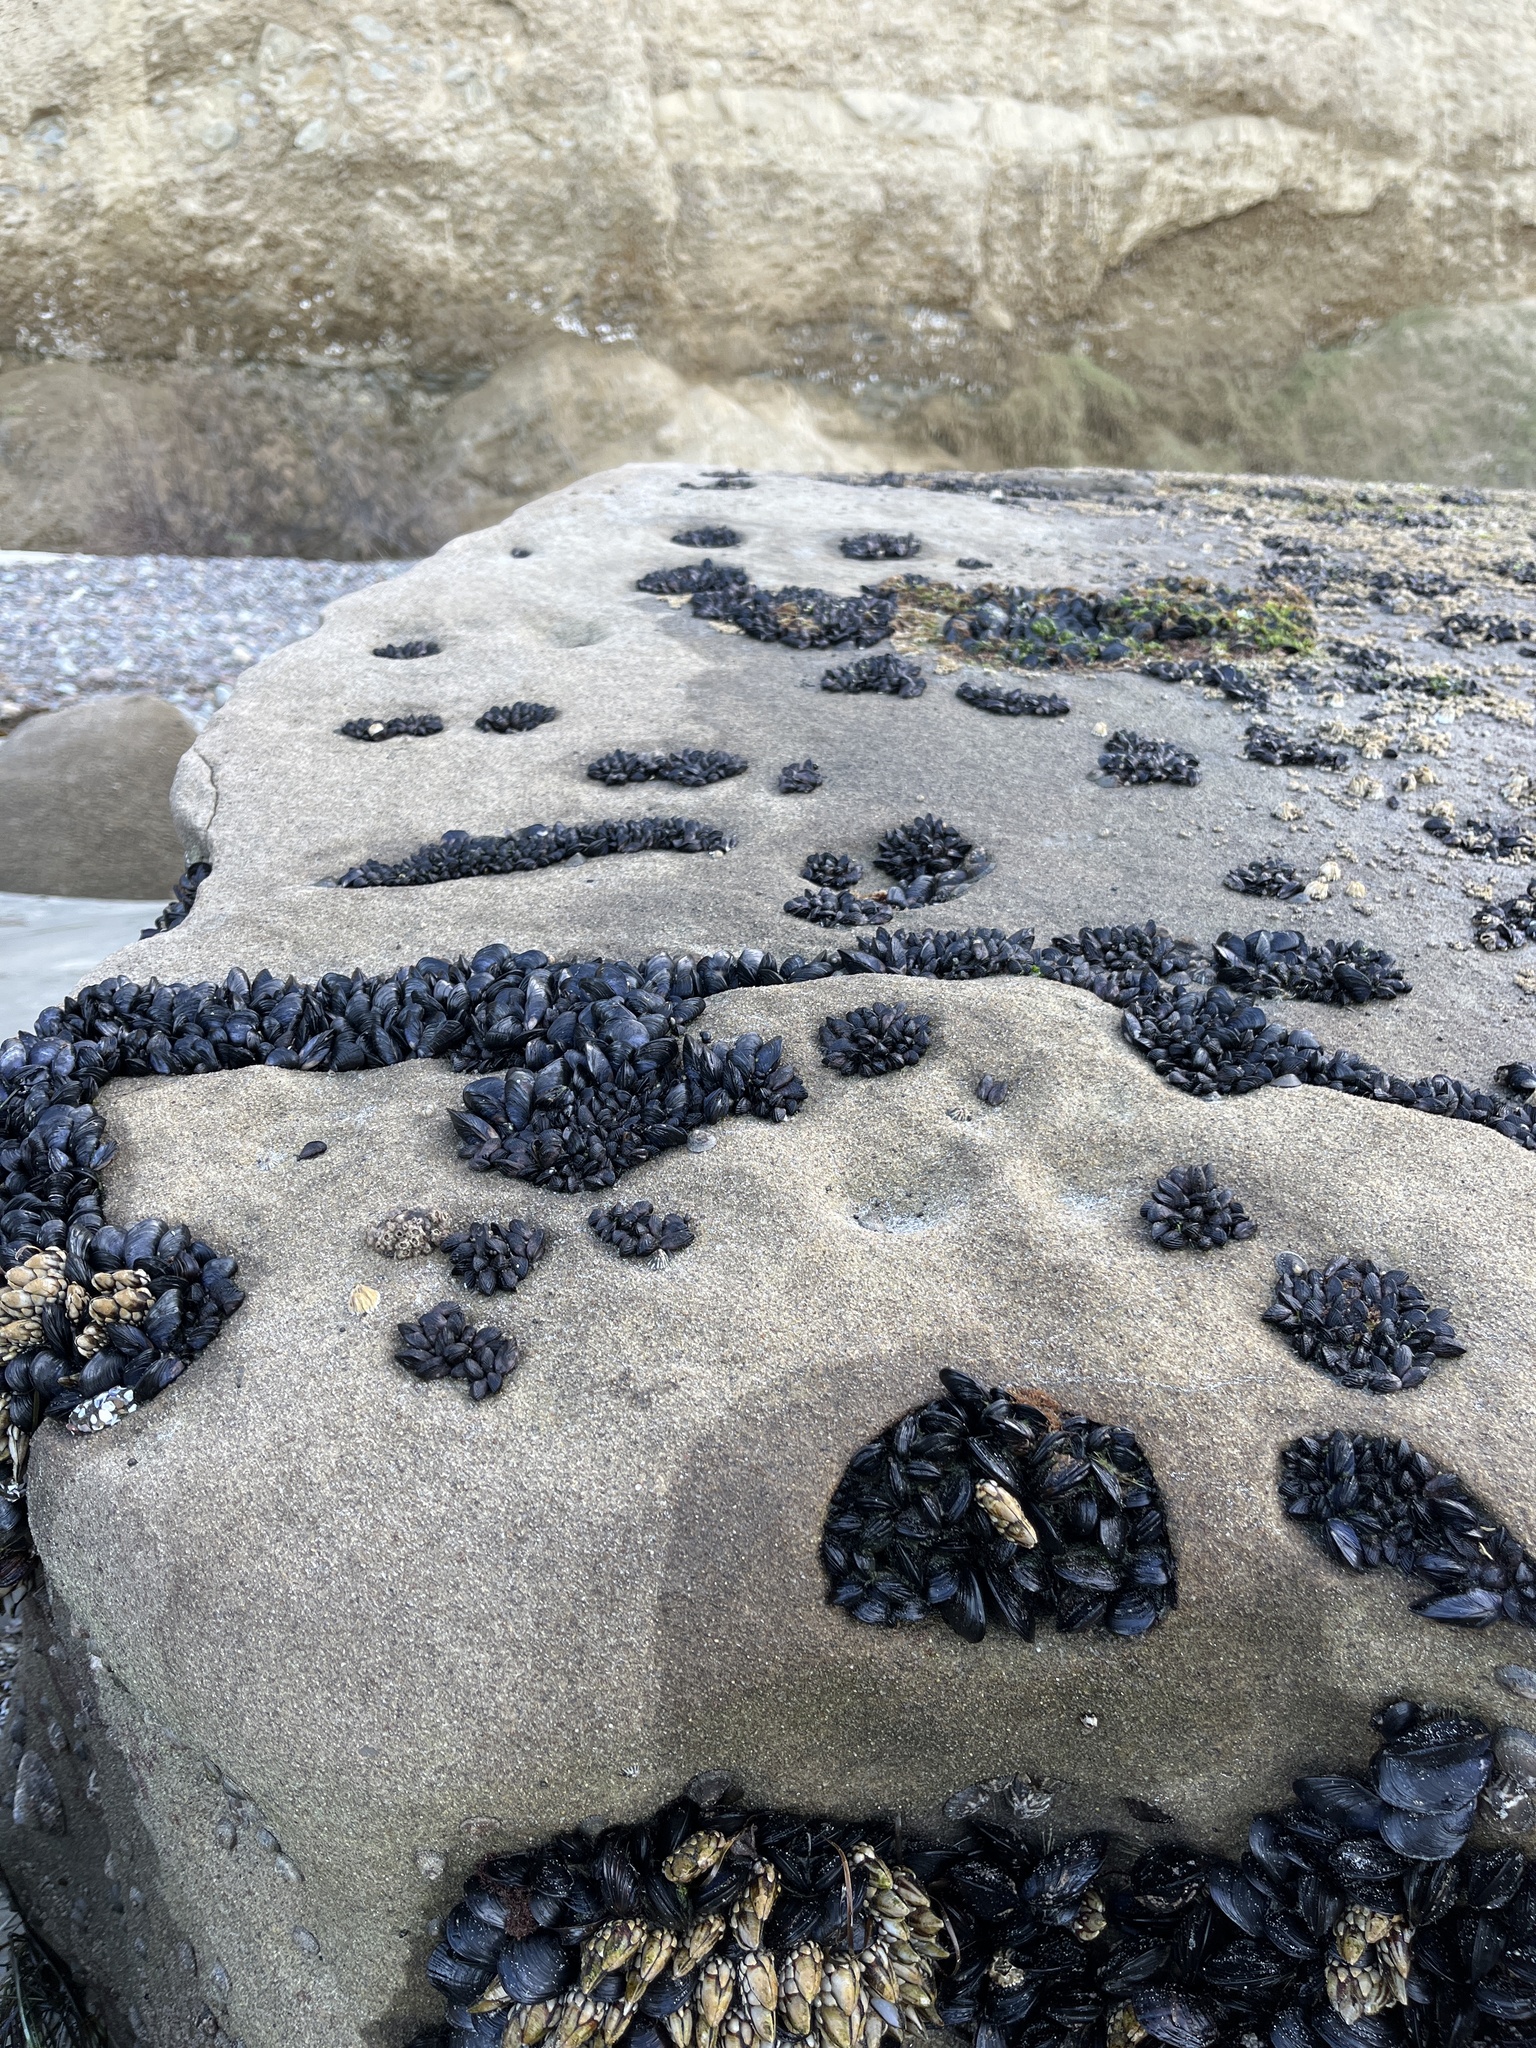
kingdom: Animalia
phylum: Mollusca
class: Bivalvia
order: Mytilida
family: Mytilidae
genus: Mytilus
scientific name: Mytilus californianus
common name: California mussel
